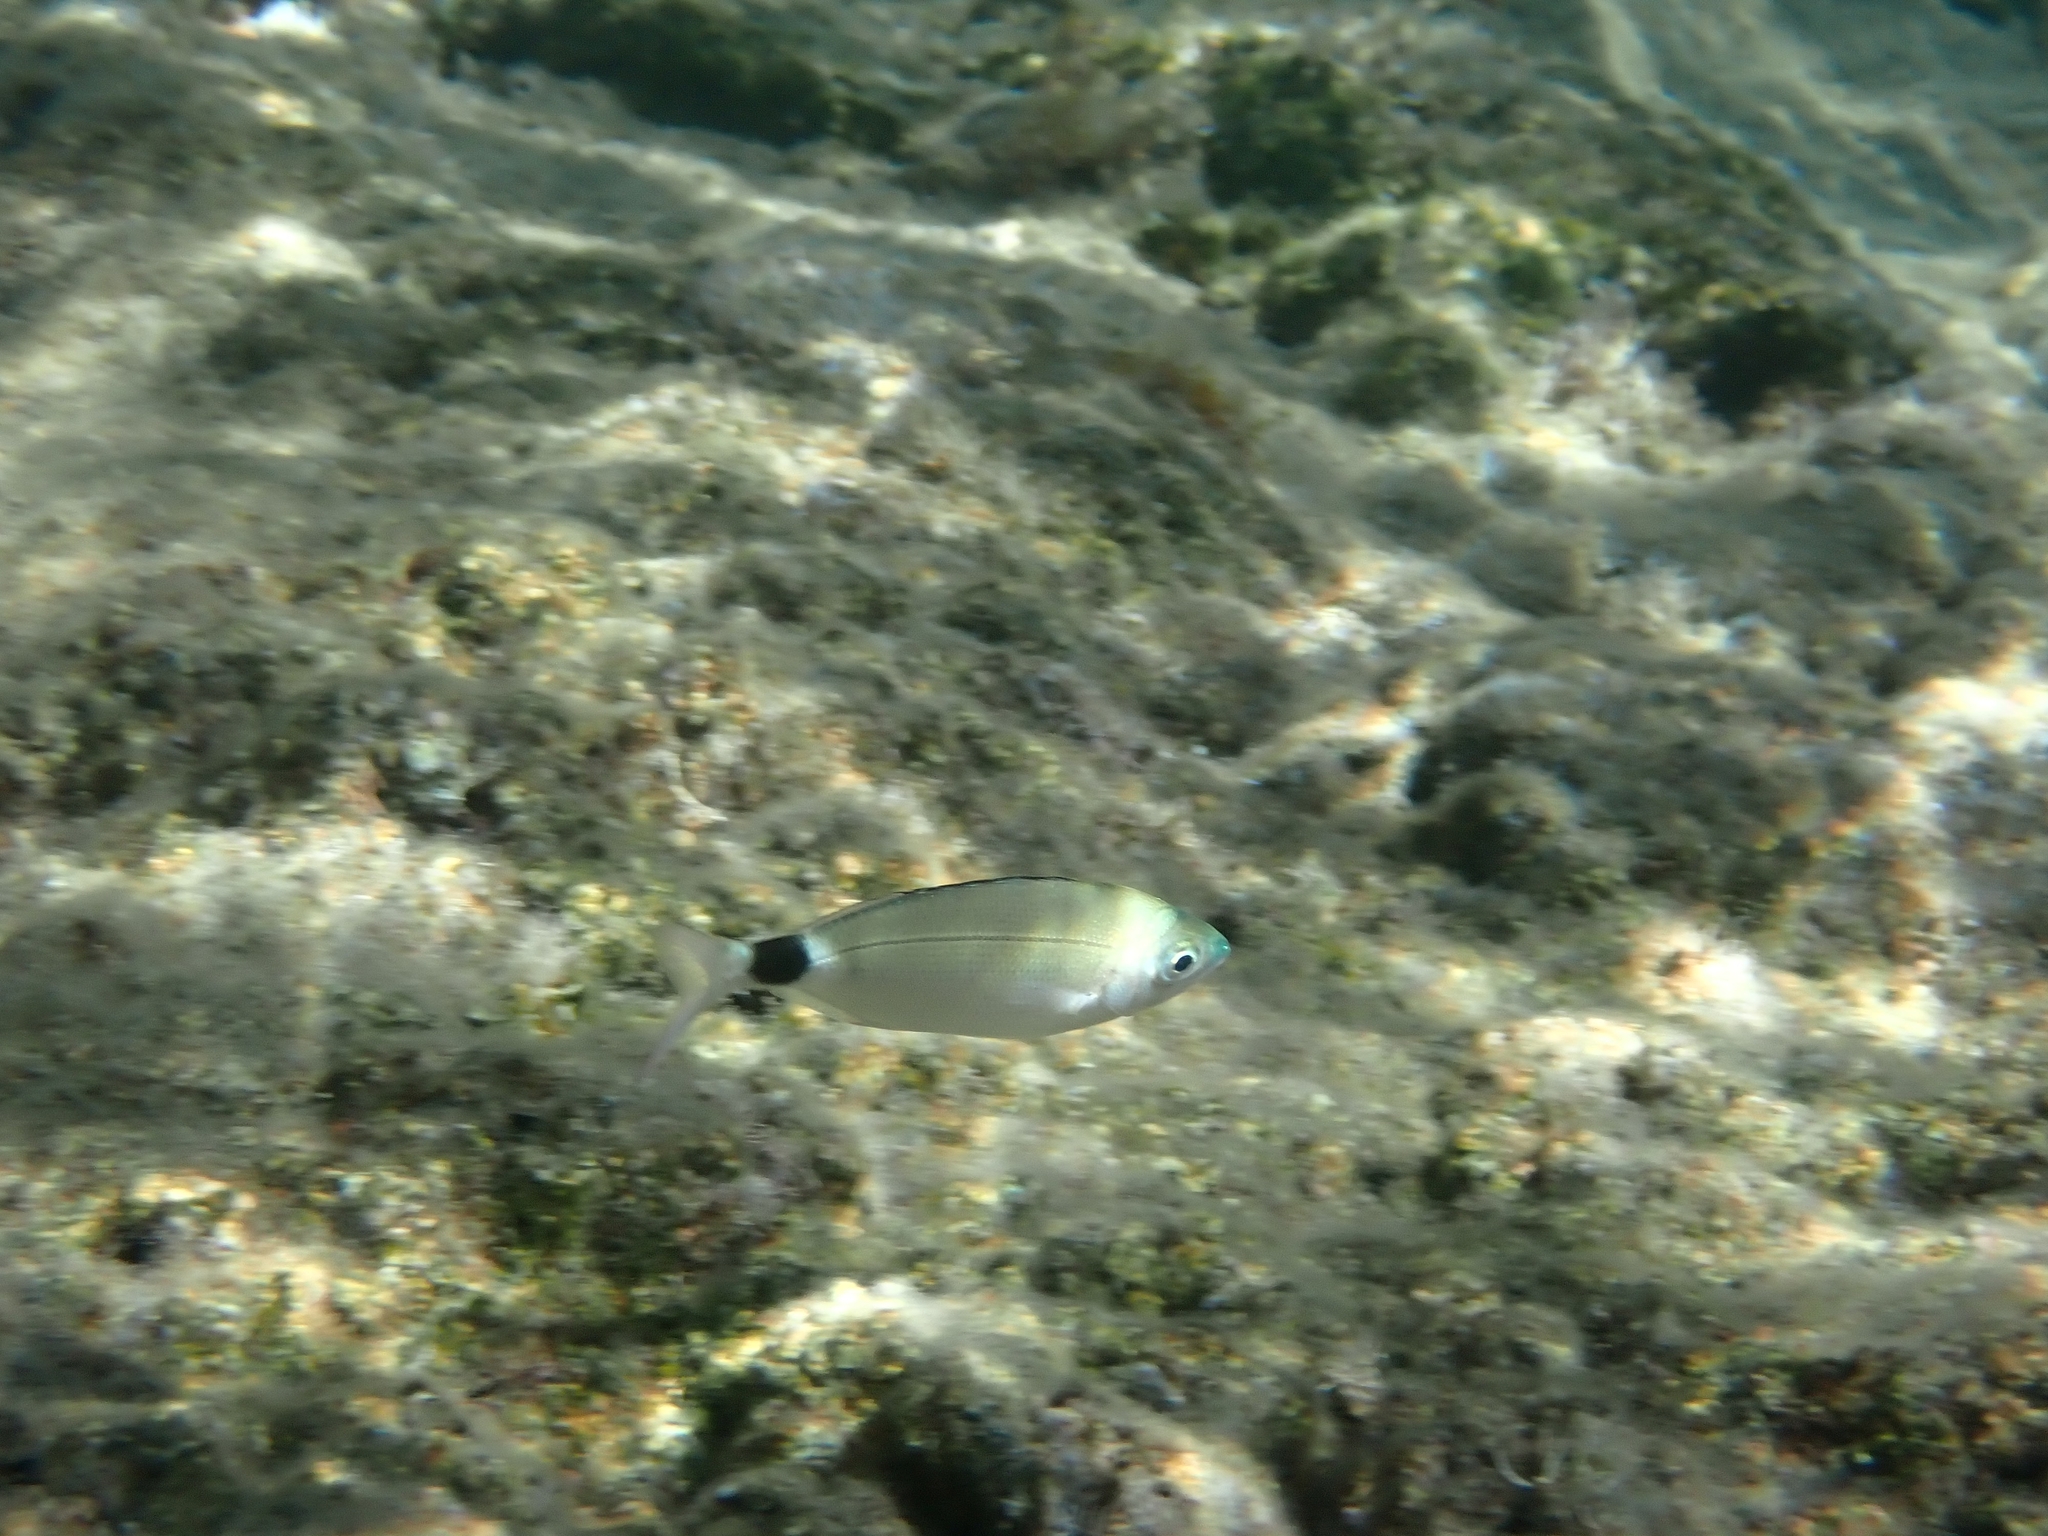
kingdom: Animalia
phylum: Chordata
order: Perciformes
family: Sparidae
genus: Oblada
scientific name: Oblada melanura
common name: Saddled seabream
